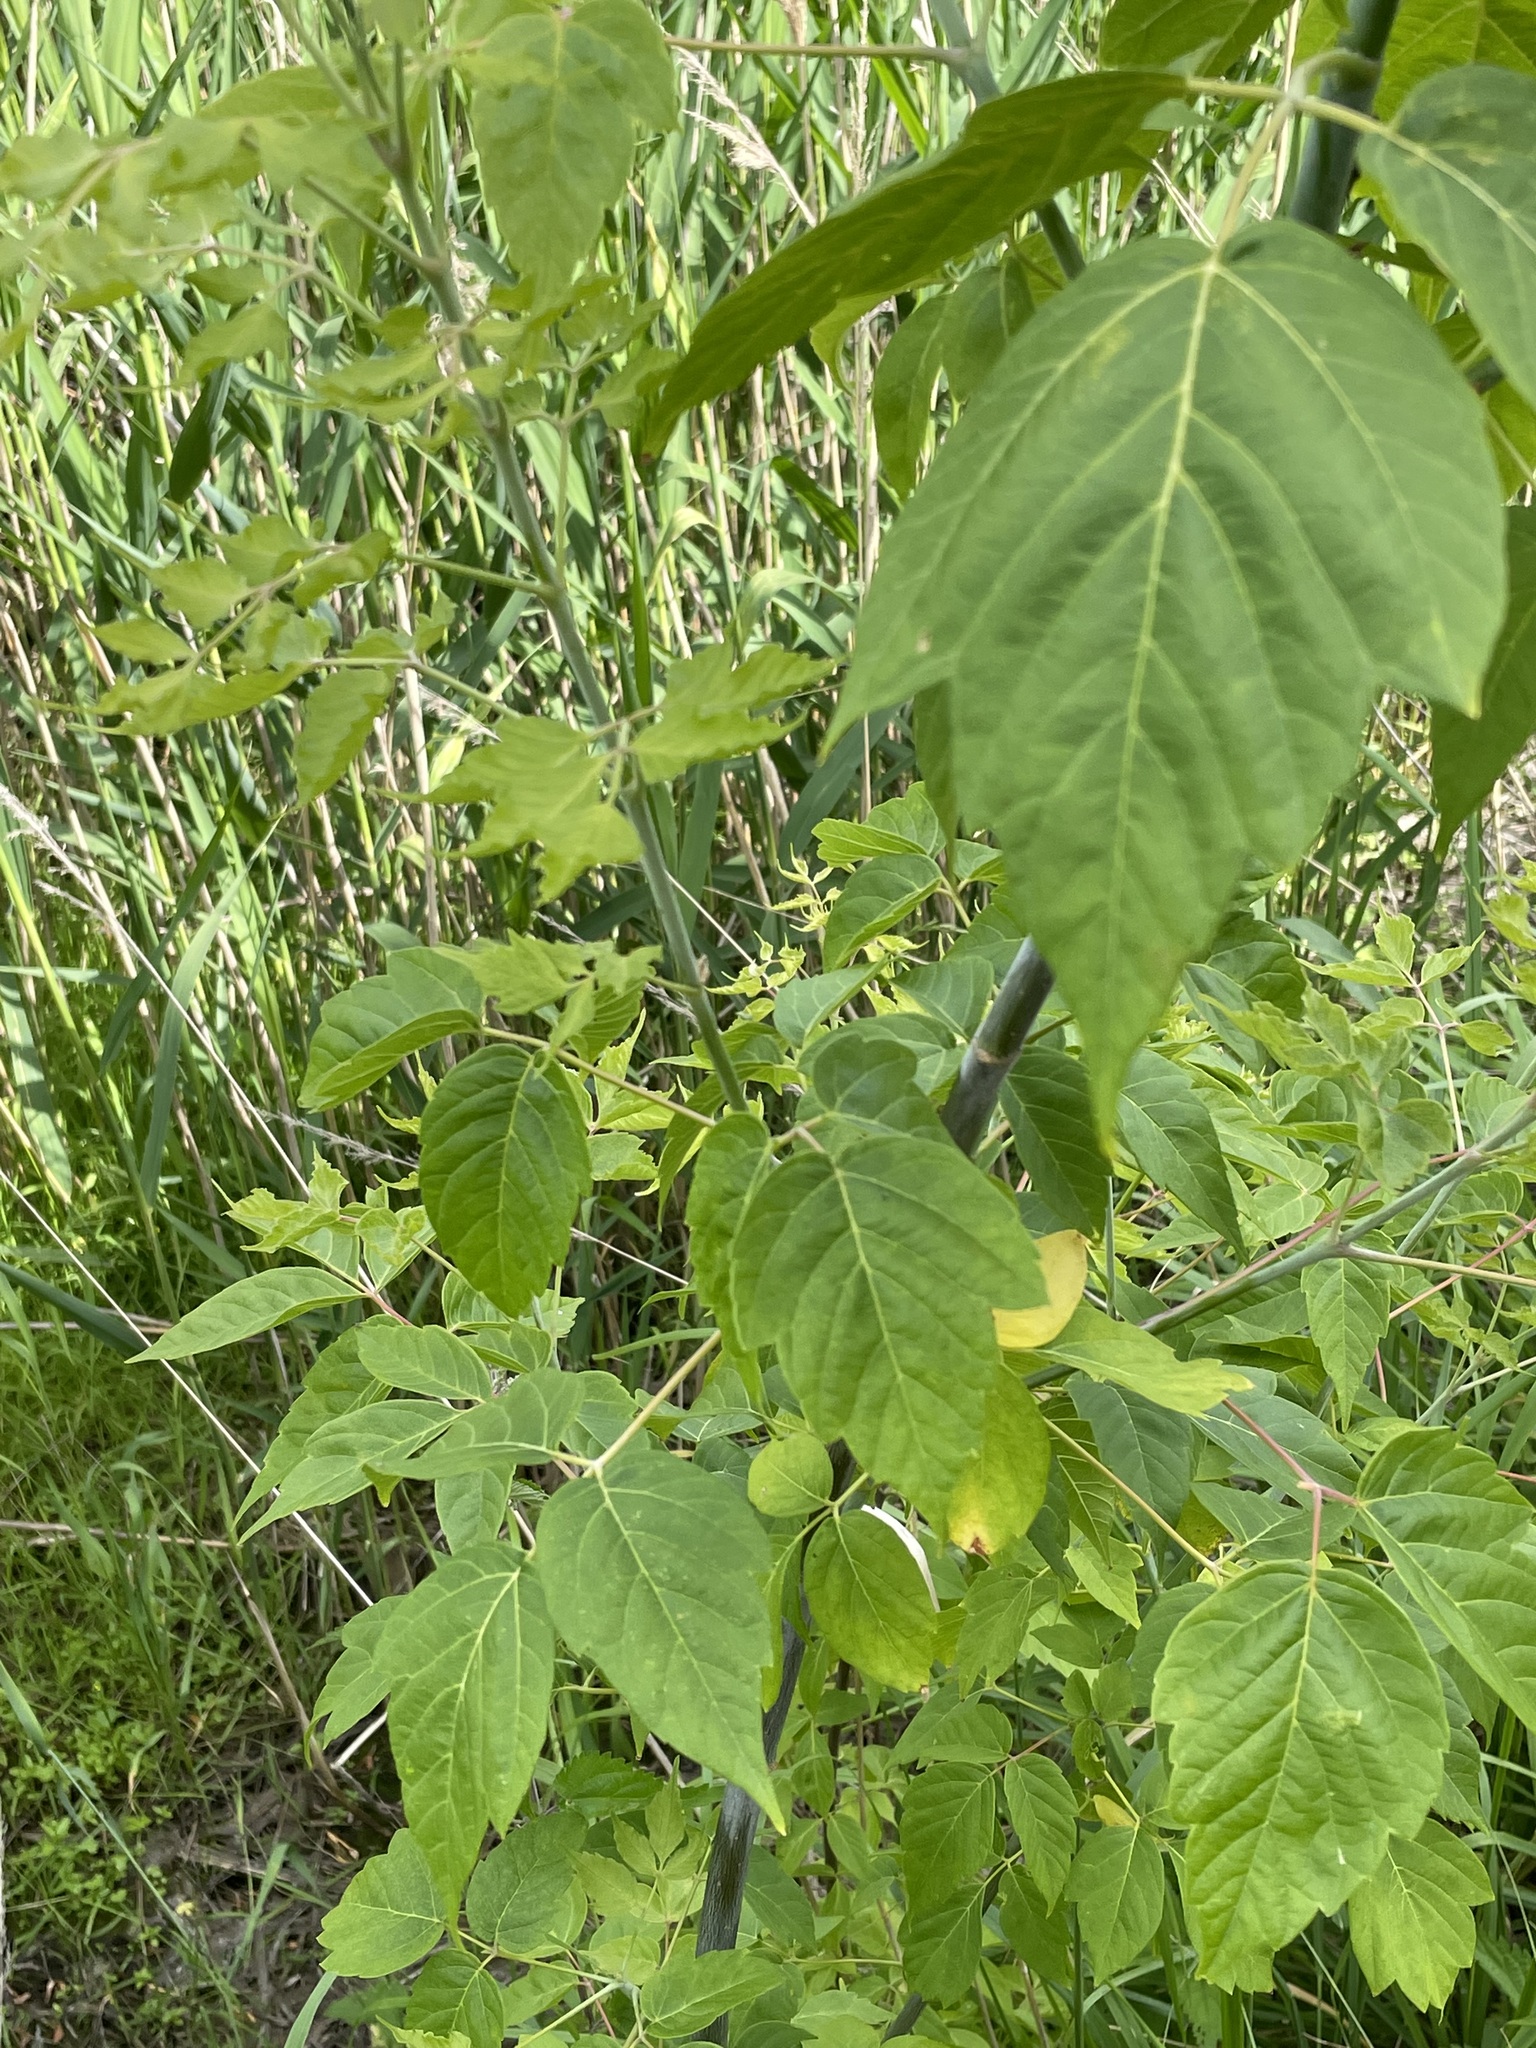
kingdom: Plantae
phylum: Tracheophyta
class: Magnoliopsida
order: Sapindales
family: Sapindaceae
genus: Acer
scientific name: Acer negundo
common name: Ashleaf maple
